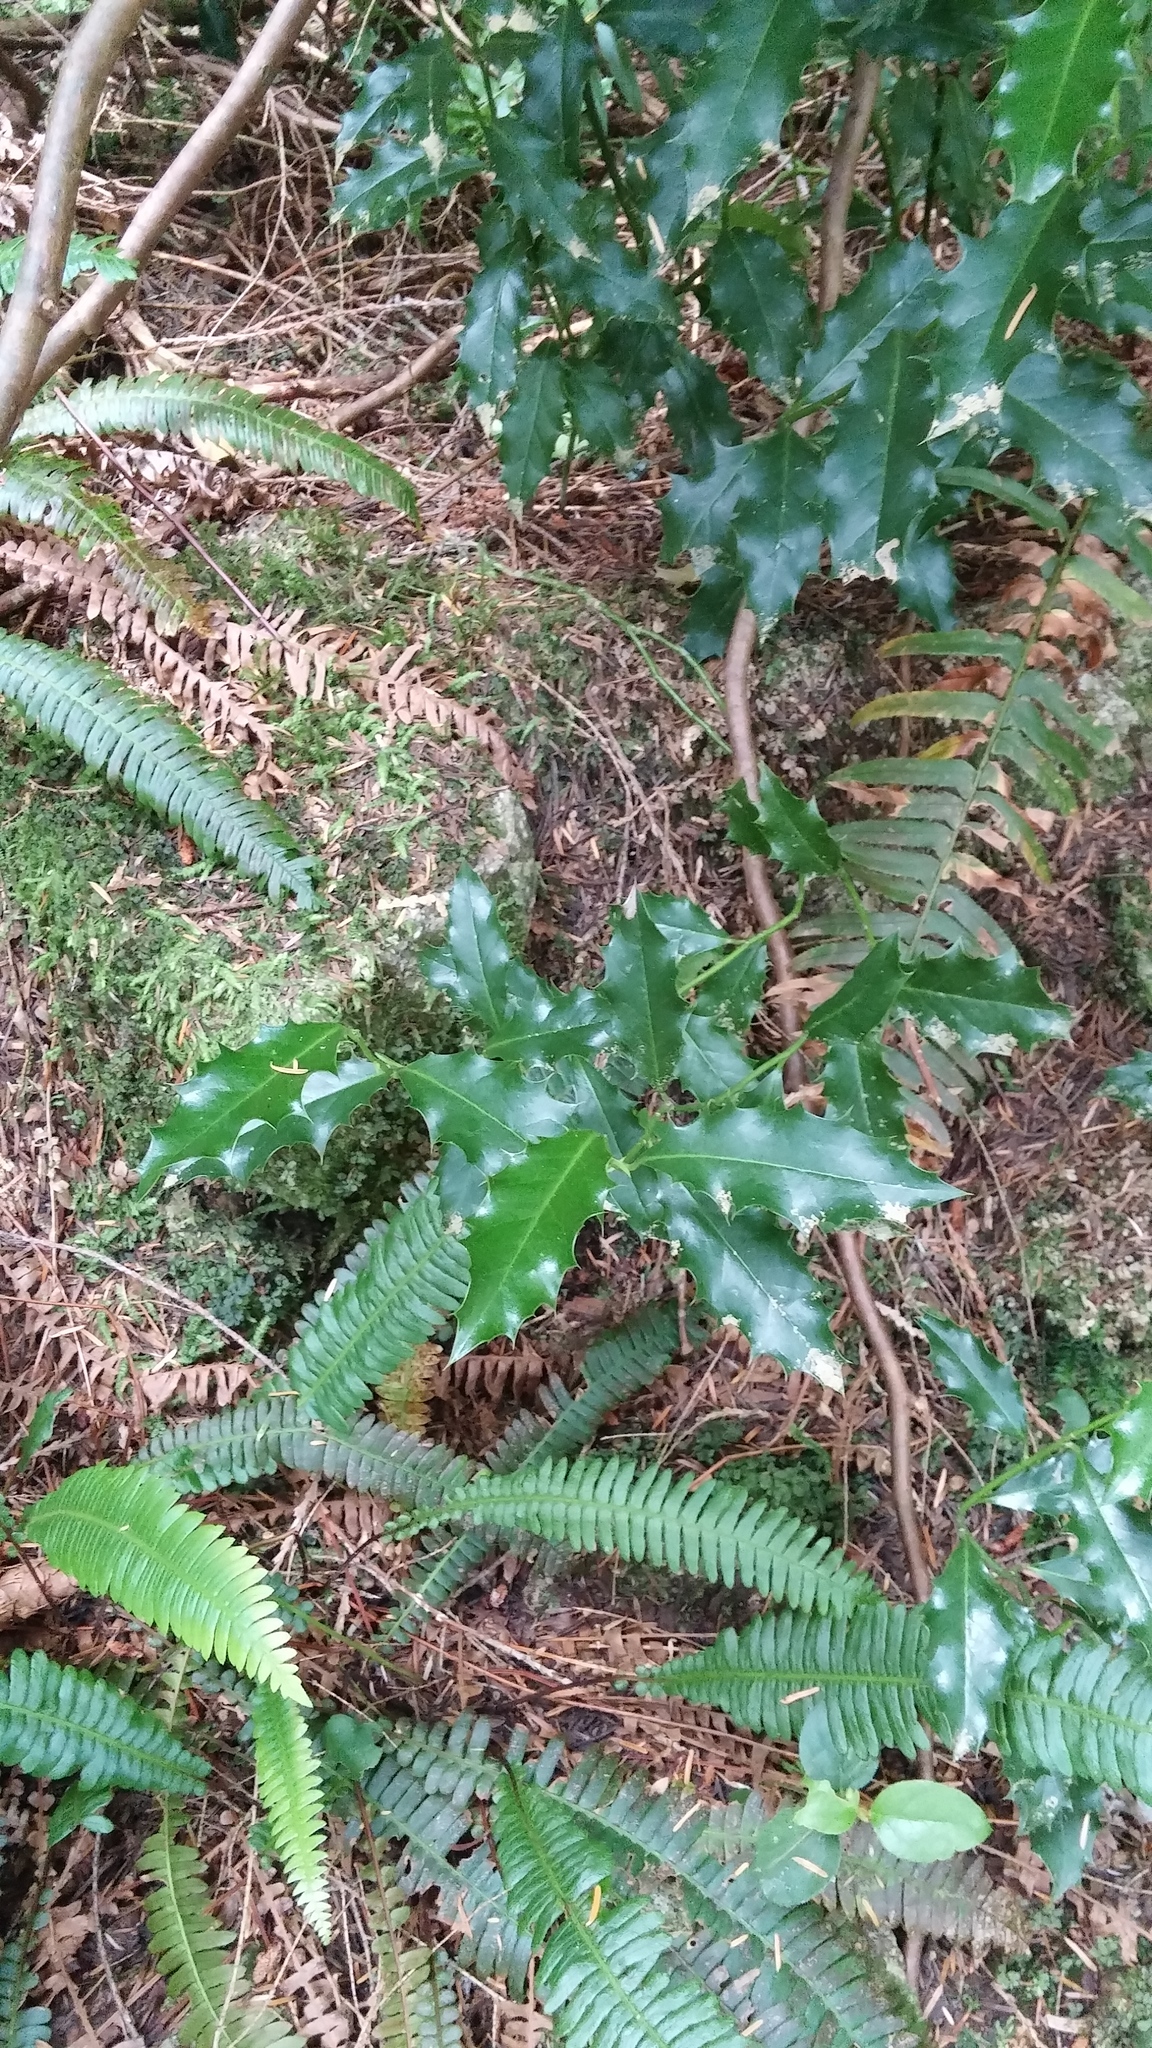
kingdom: Plantae
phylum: Tracheophyta
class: Magnoliopsida
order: Aquifoliales
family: Aquifoliaceae
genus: Ilex
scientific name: Ilex aquifolium
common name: English holly
